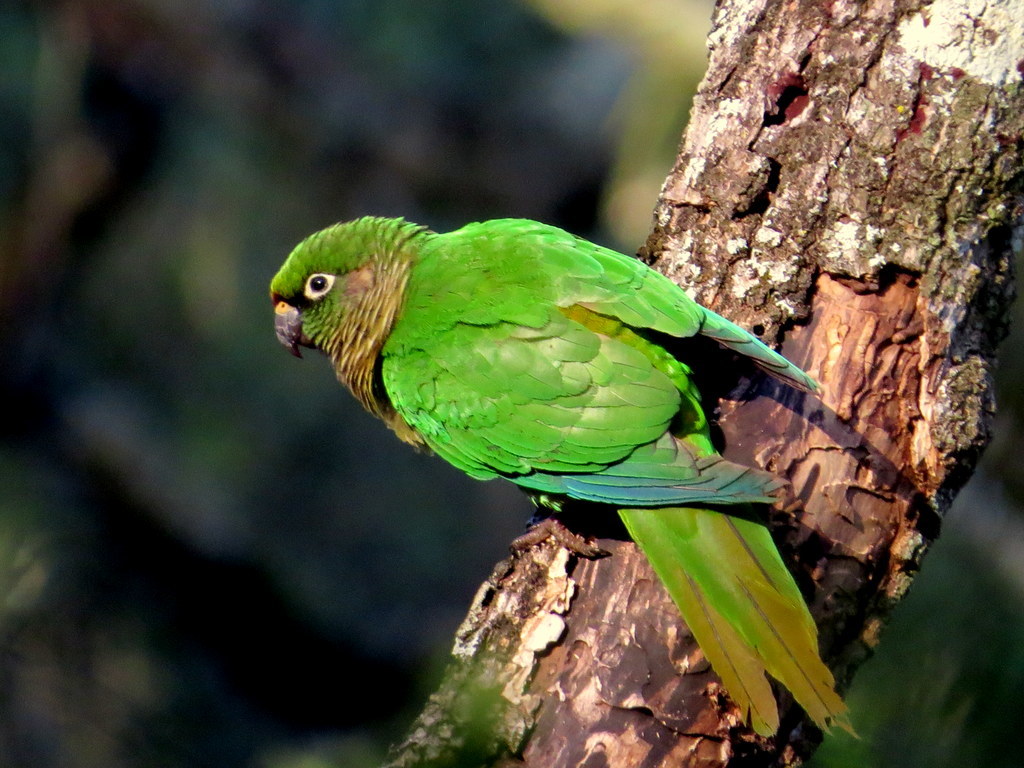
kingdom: Animalia
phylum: Chordata
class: Aves
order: Psittaciformes
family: Psittacidae
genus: Pyrrhura
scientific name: Pyrrhura frontalis
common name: Maroon-bellied parakeet
